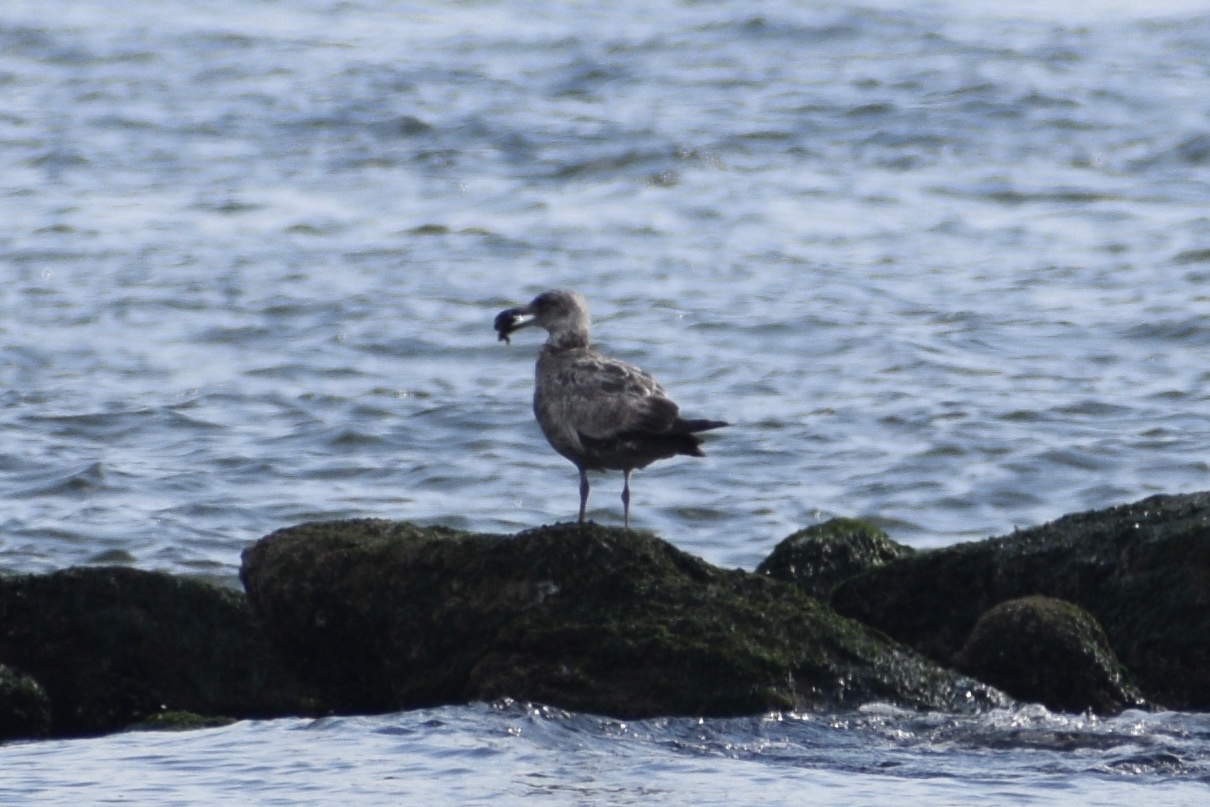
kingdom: Animalia
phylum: Chordata
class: Aves
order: Charadriiformes
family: Laridae
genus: Larus
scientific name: Larus argentatus
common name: Herring gull
